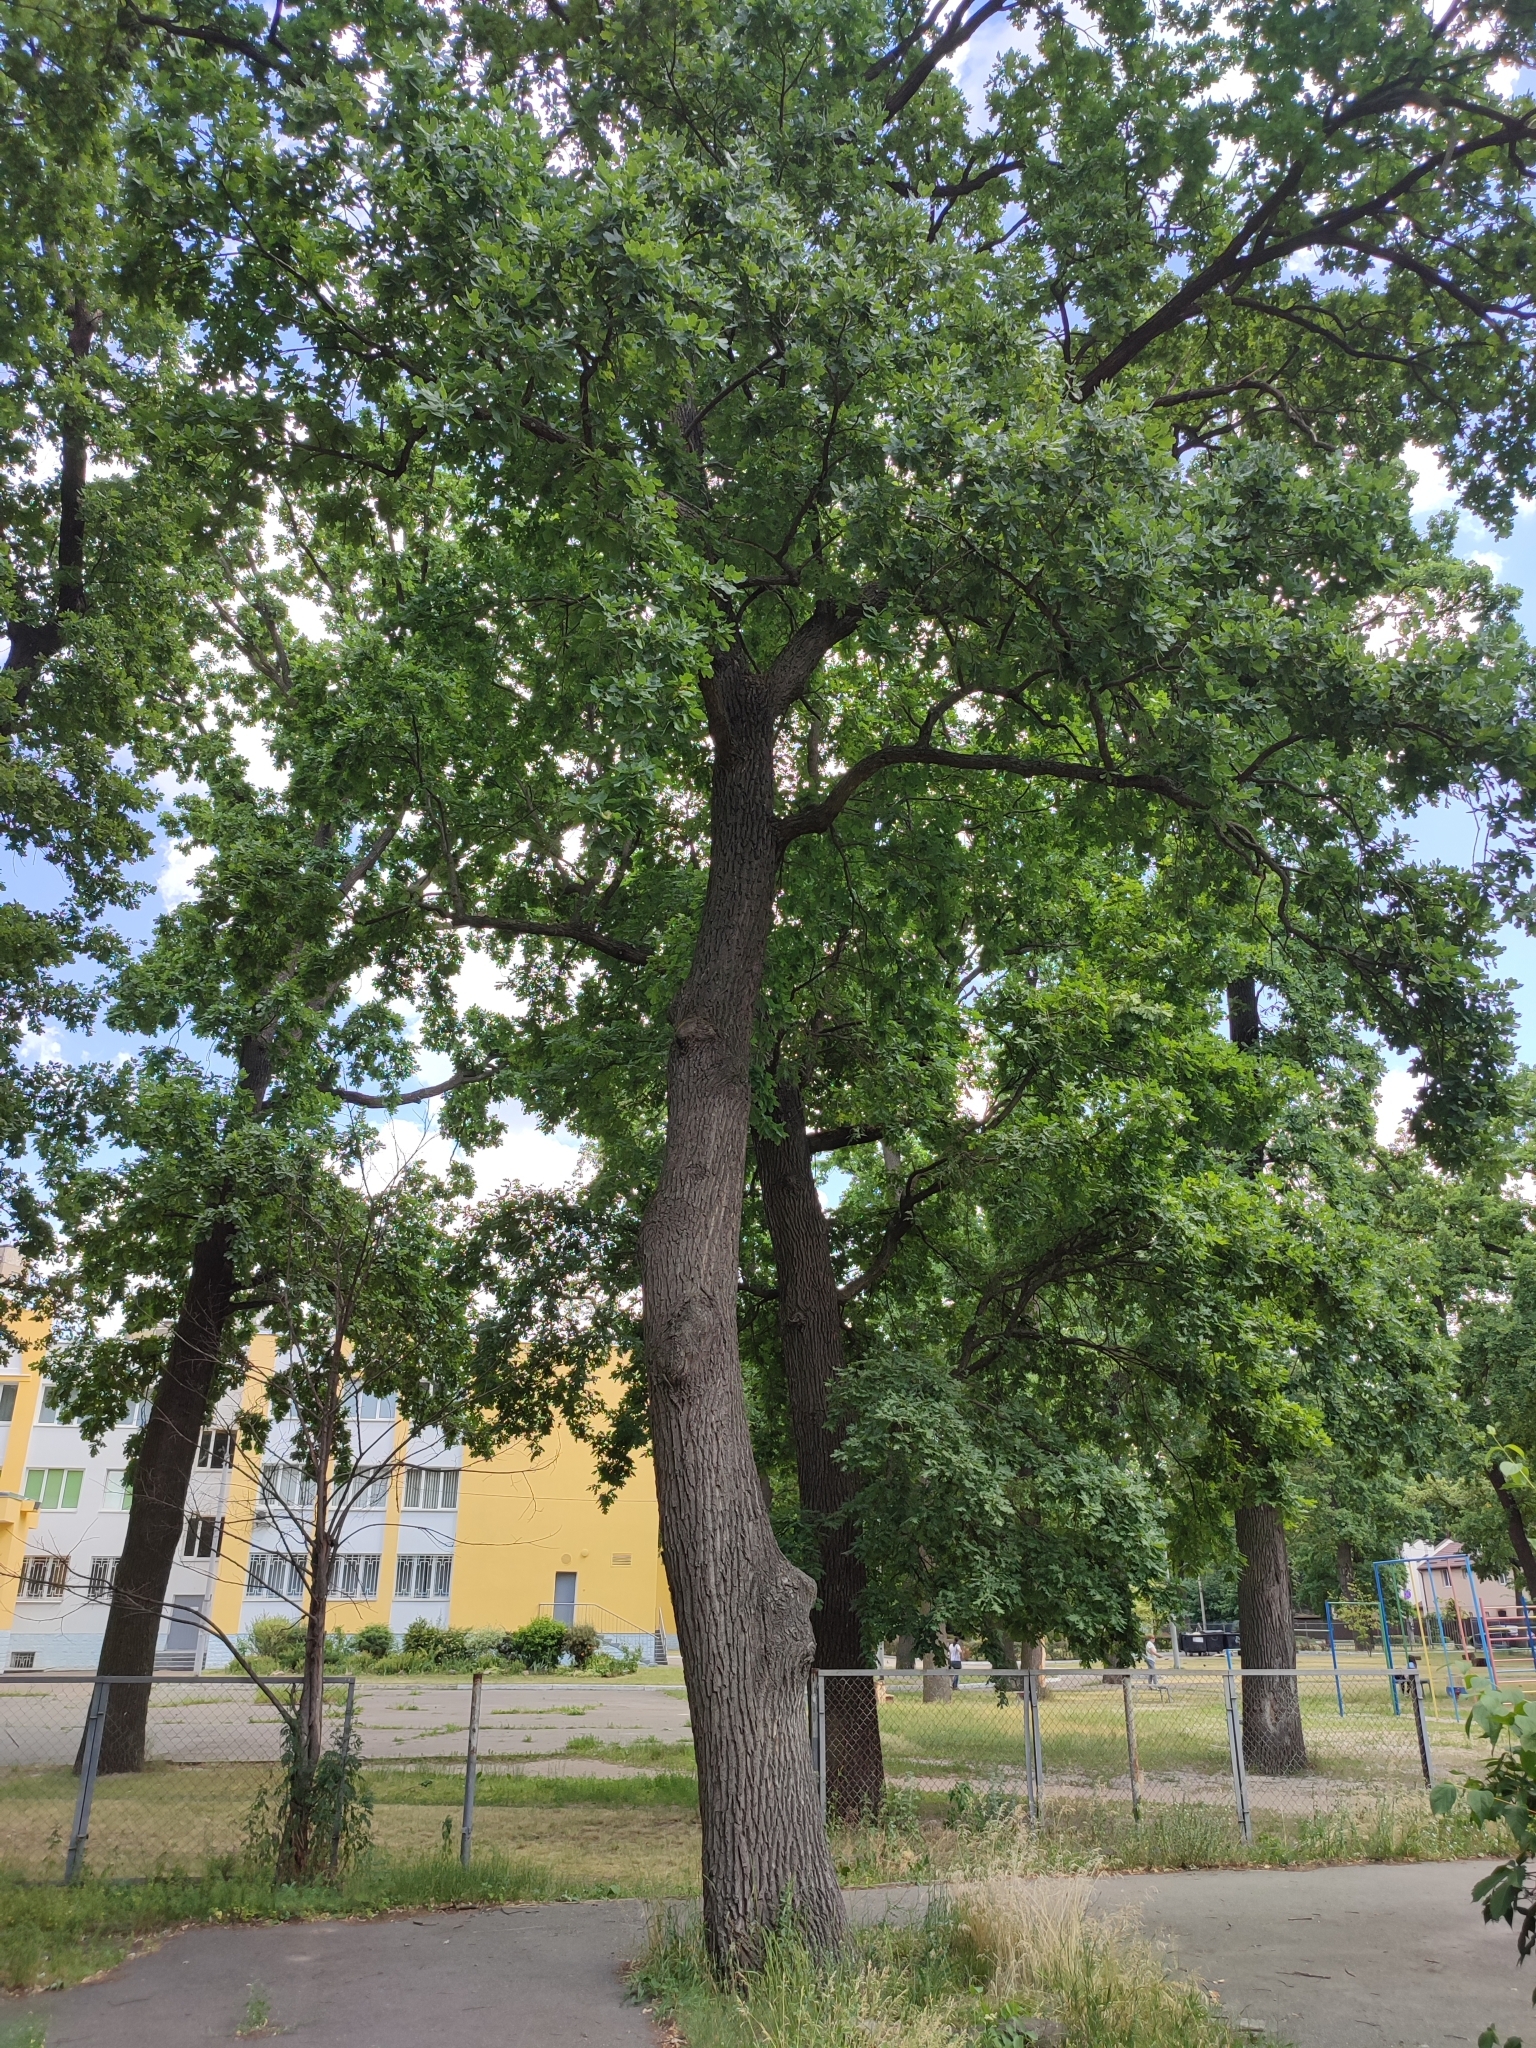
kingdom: Plantae
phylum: Tracheophyta
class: Magnoliopsida
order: Fagales
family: Fagaceae
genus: Quercus
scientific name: Quercus robur
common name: Pedunculate oak
